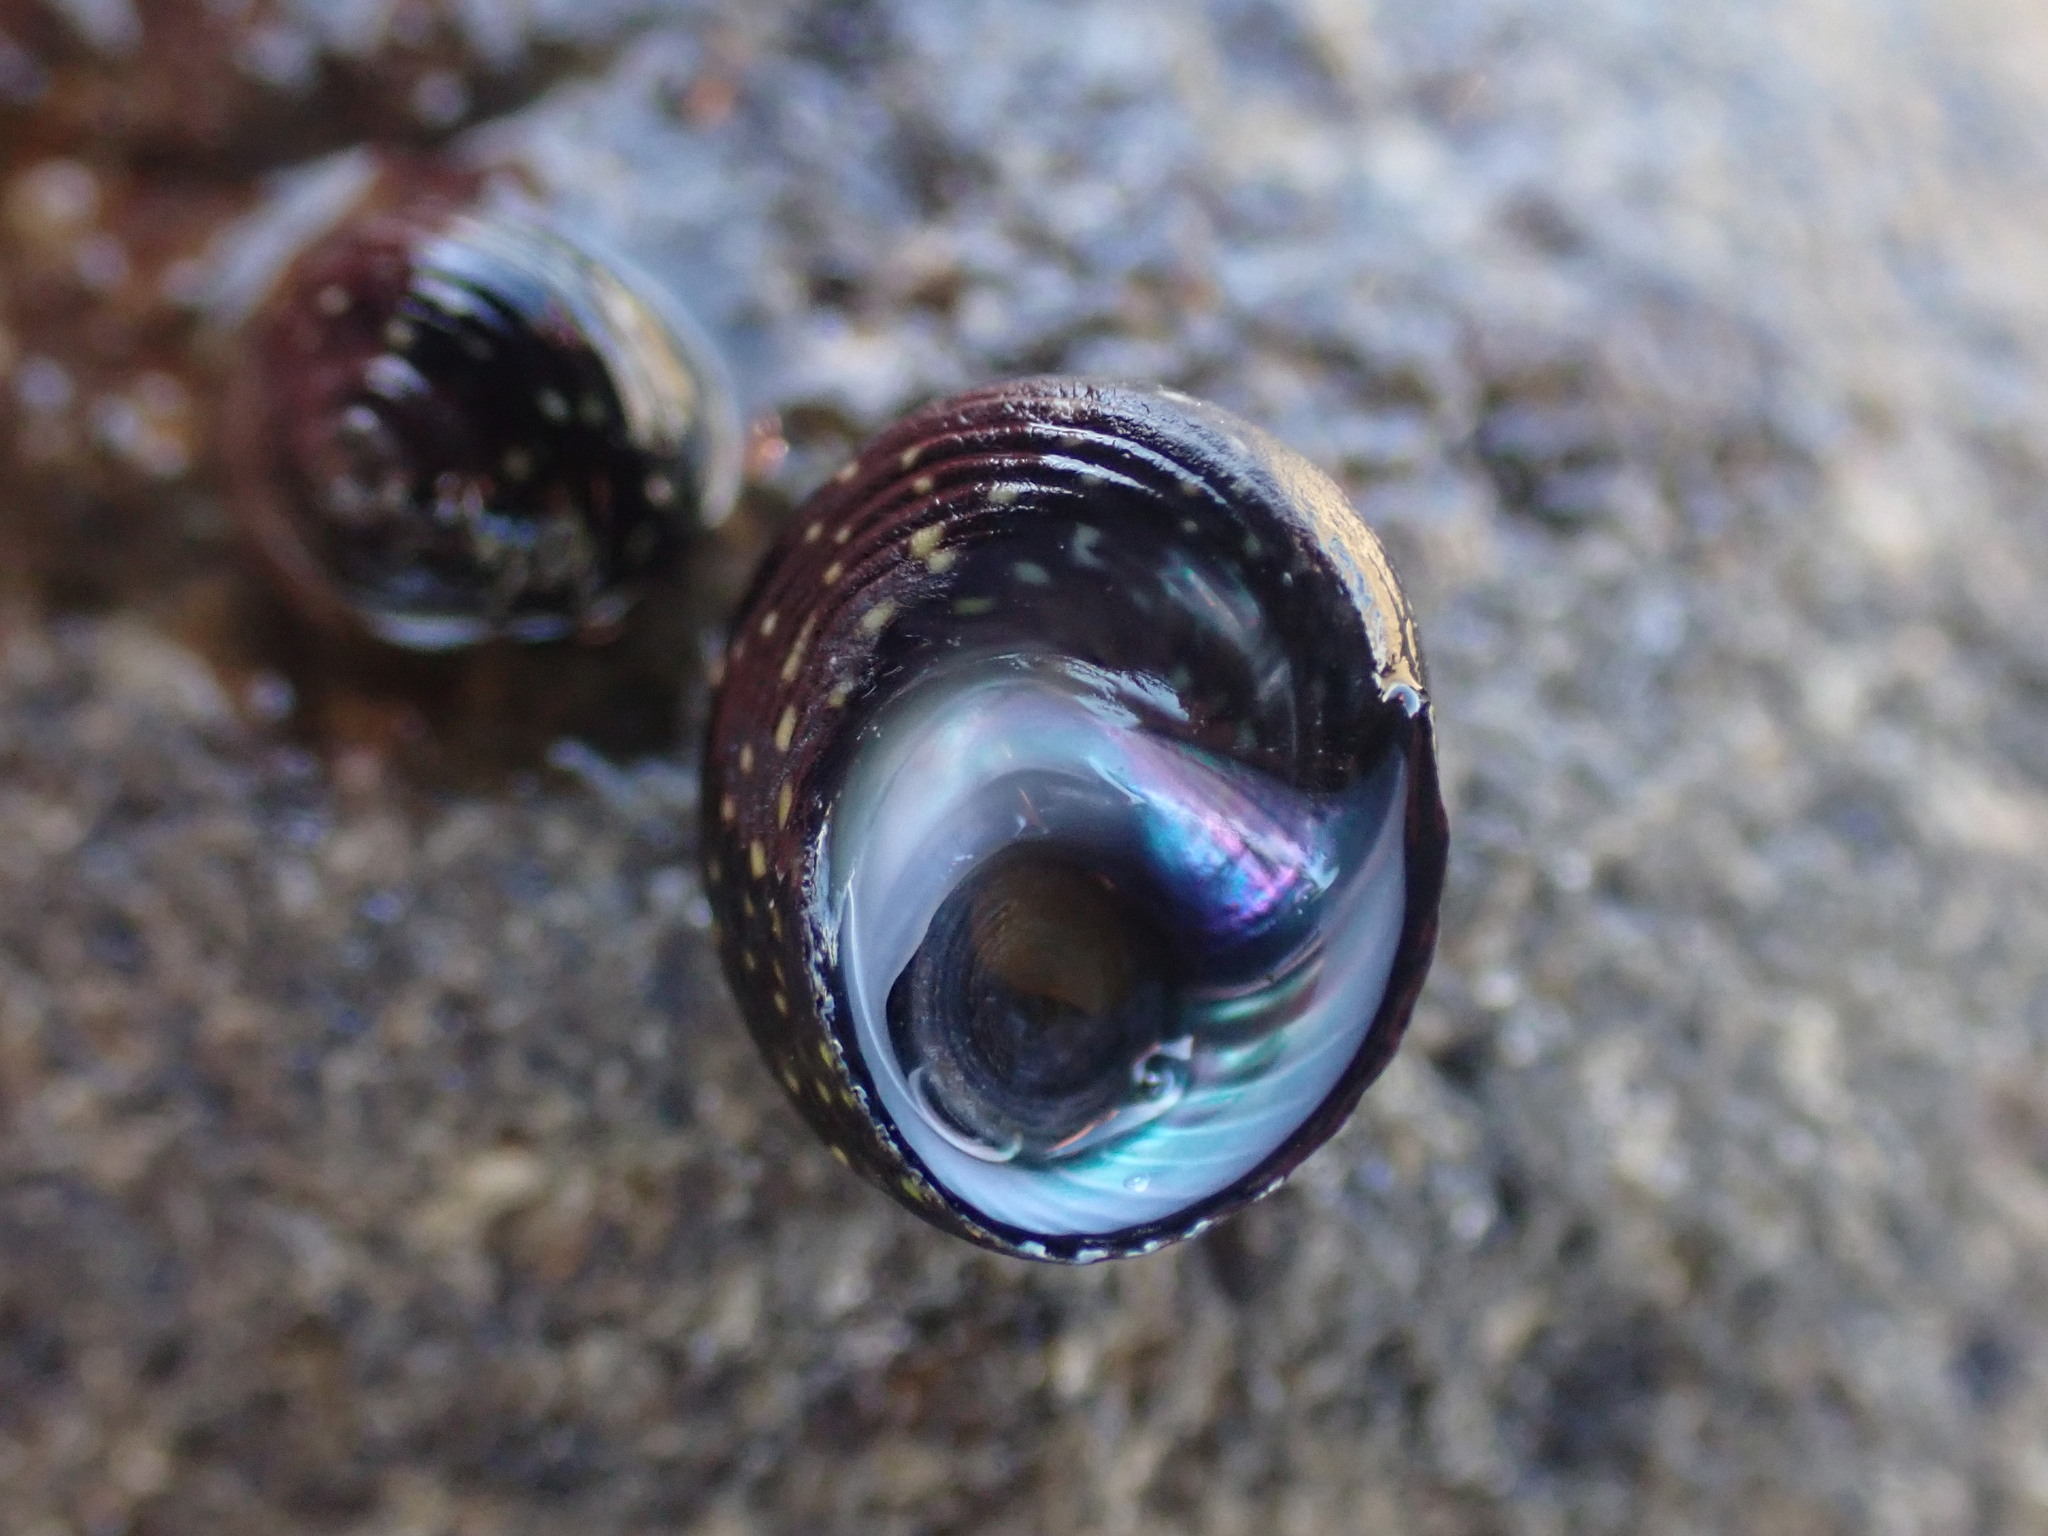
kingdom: Animalia
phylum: Mollusca
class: Gastropoda
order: Trochida
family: Trochidae
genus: Diloma
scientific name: Diloma aridum
